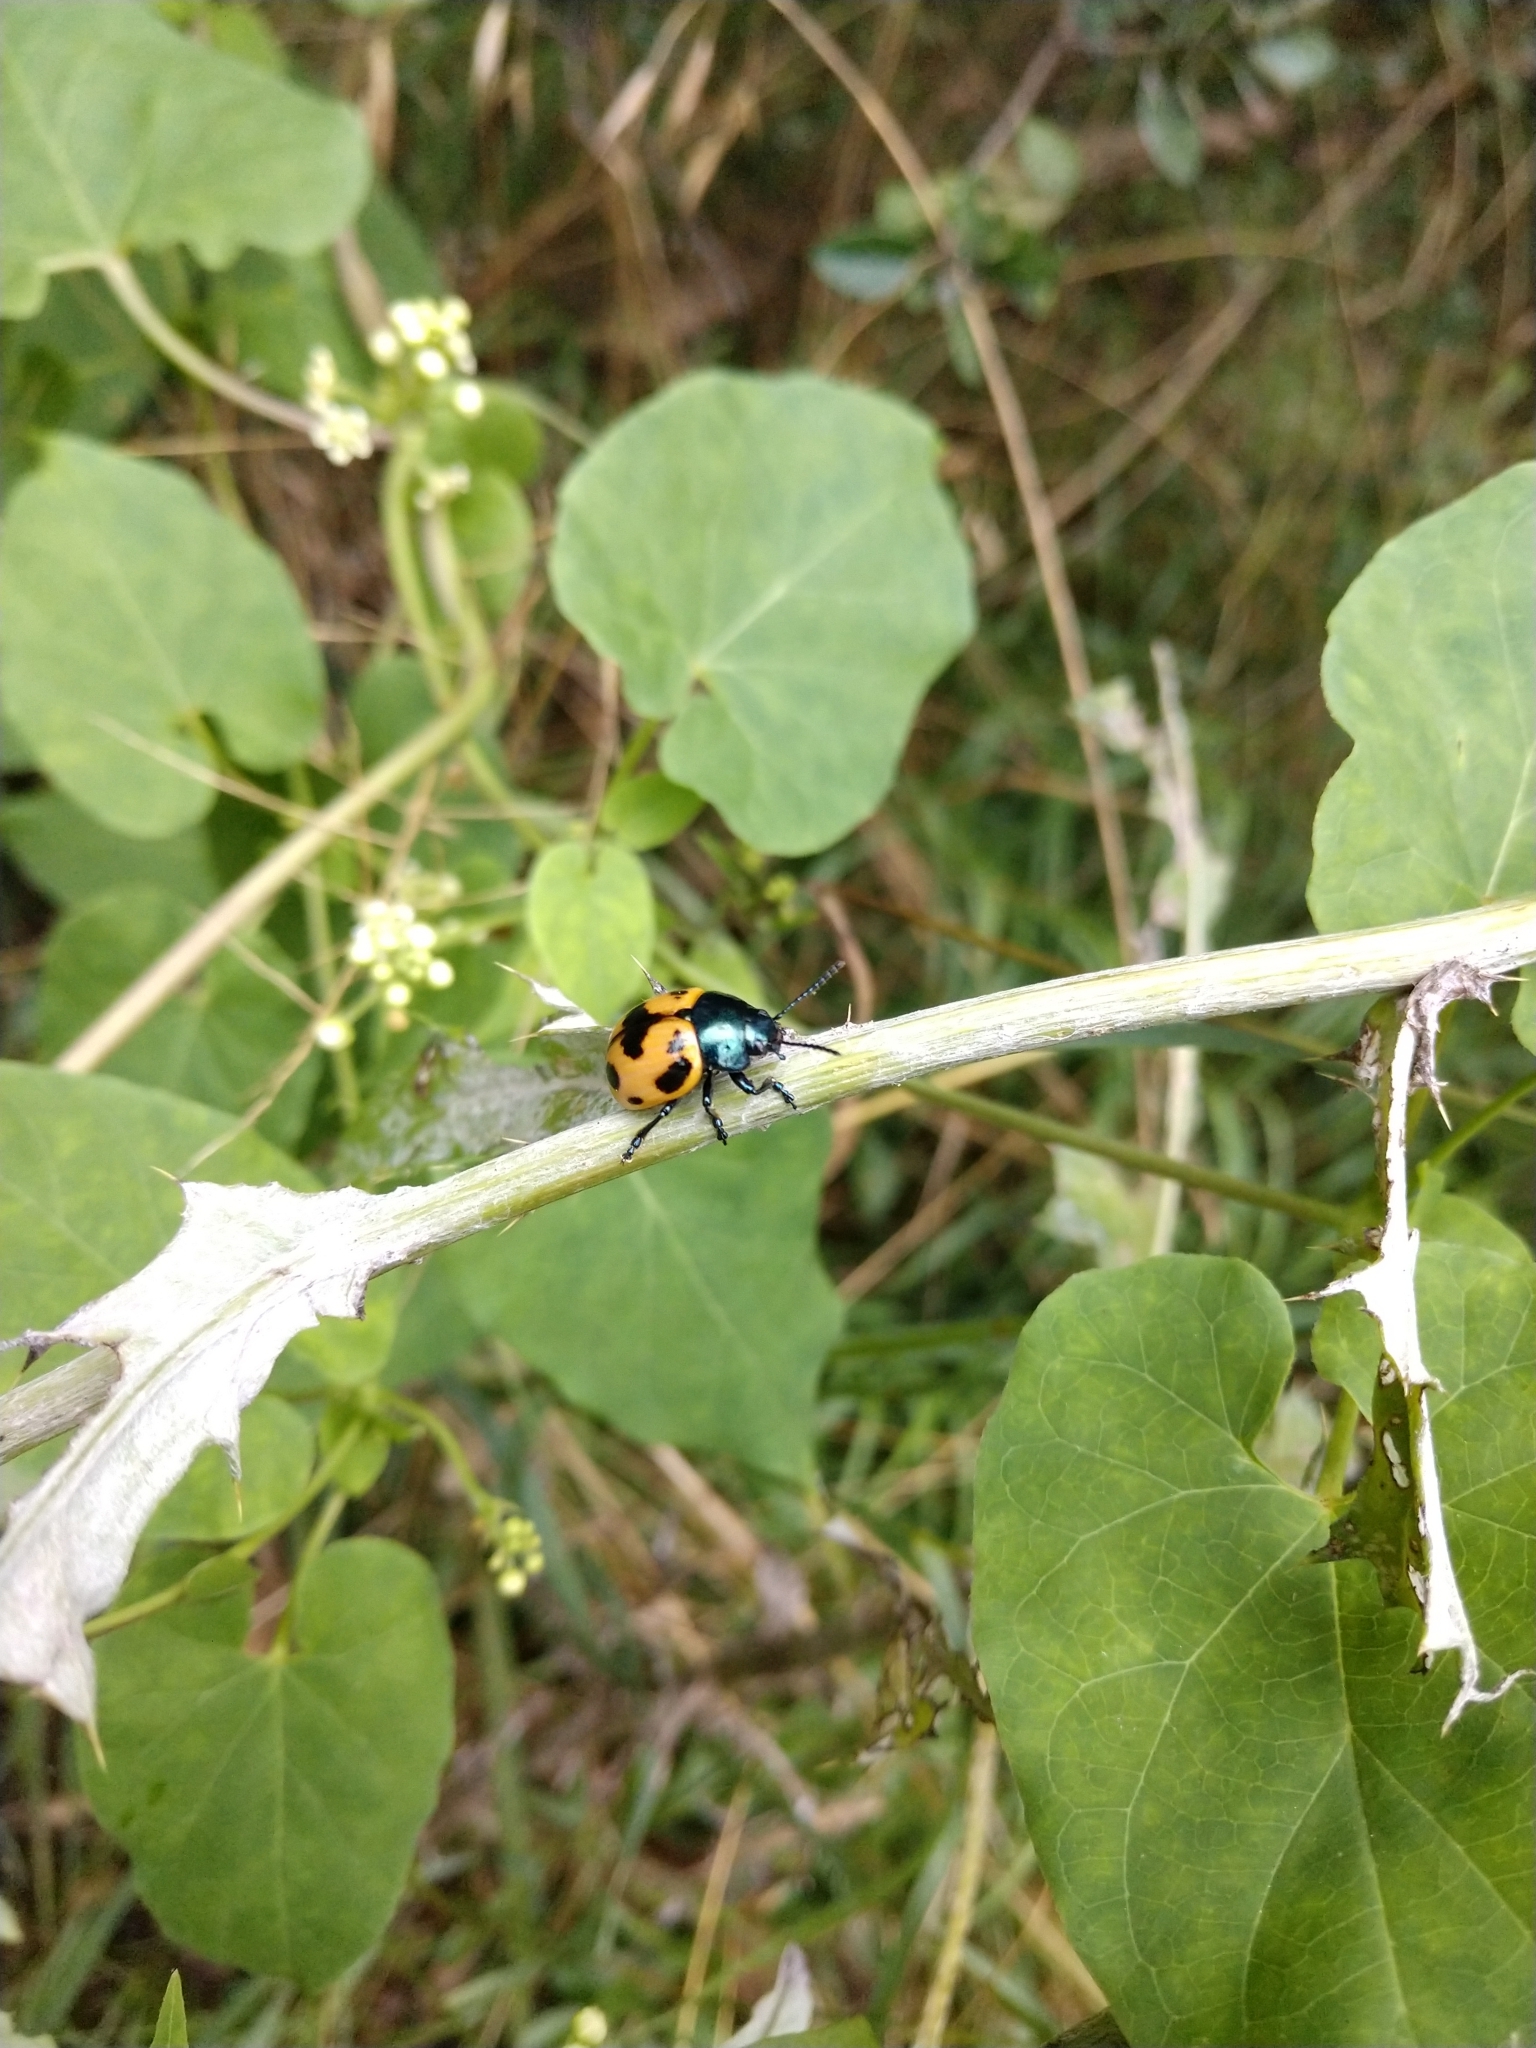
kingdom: Animalia
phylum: Arthropoda
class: Insecta
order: Coleoptera
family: Chrysomelidae
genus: Labidomera
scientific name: Labidomera clivicollis
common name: Swamp milkweed leaf beetle
